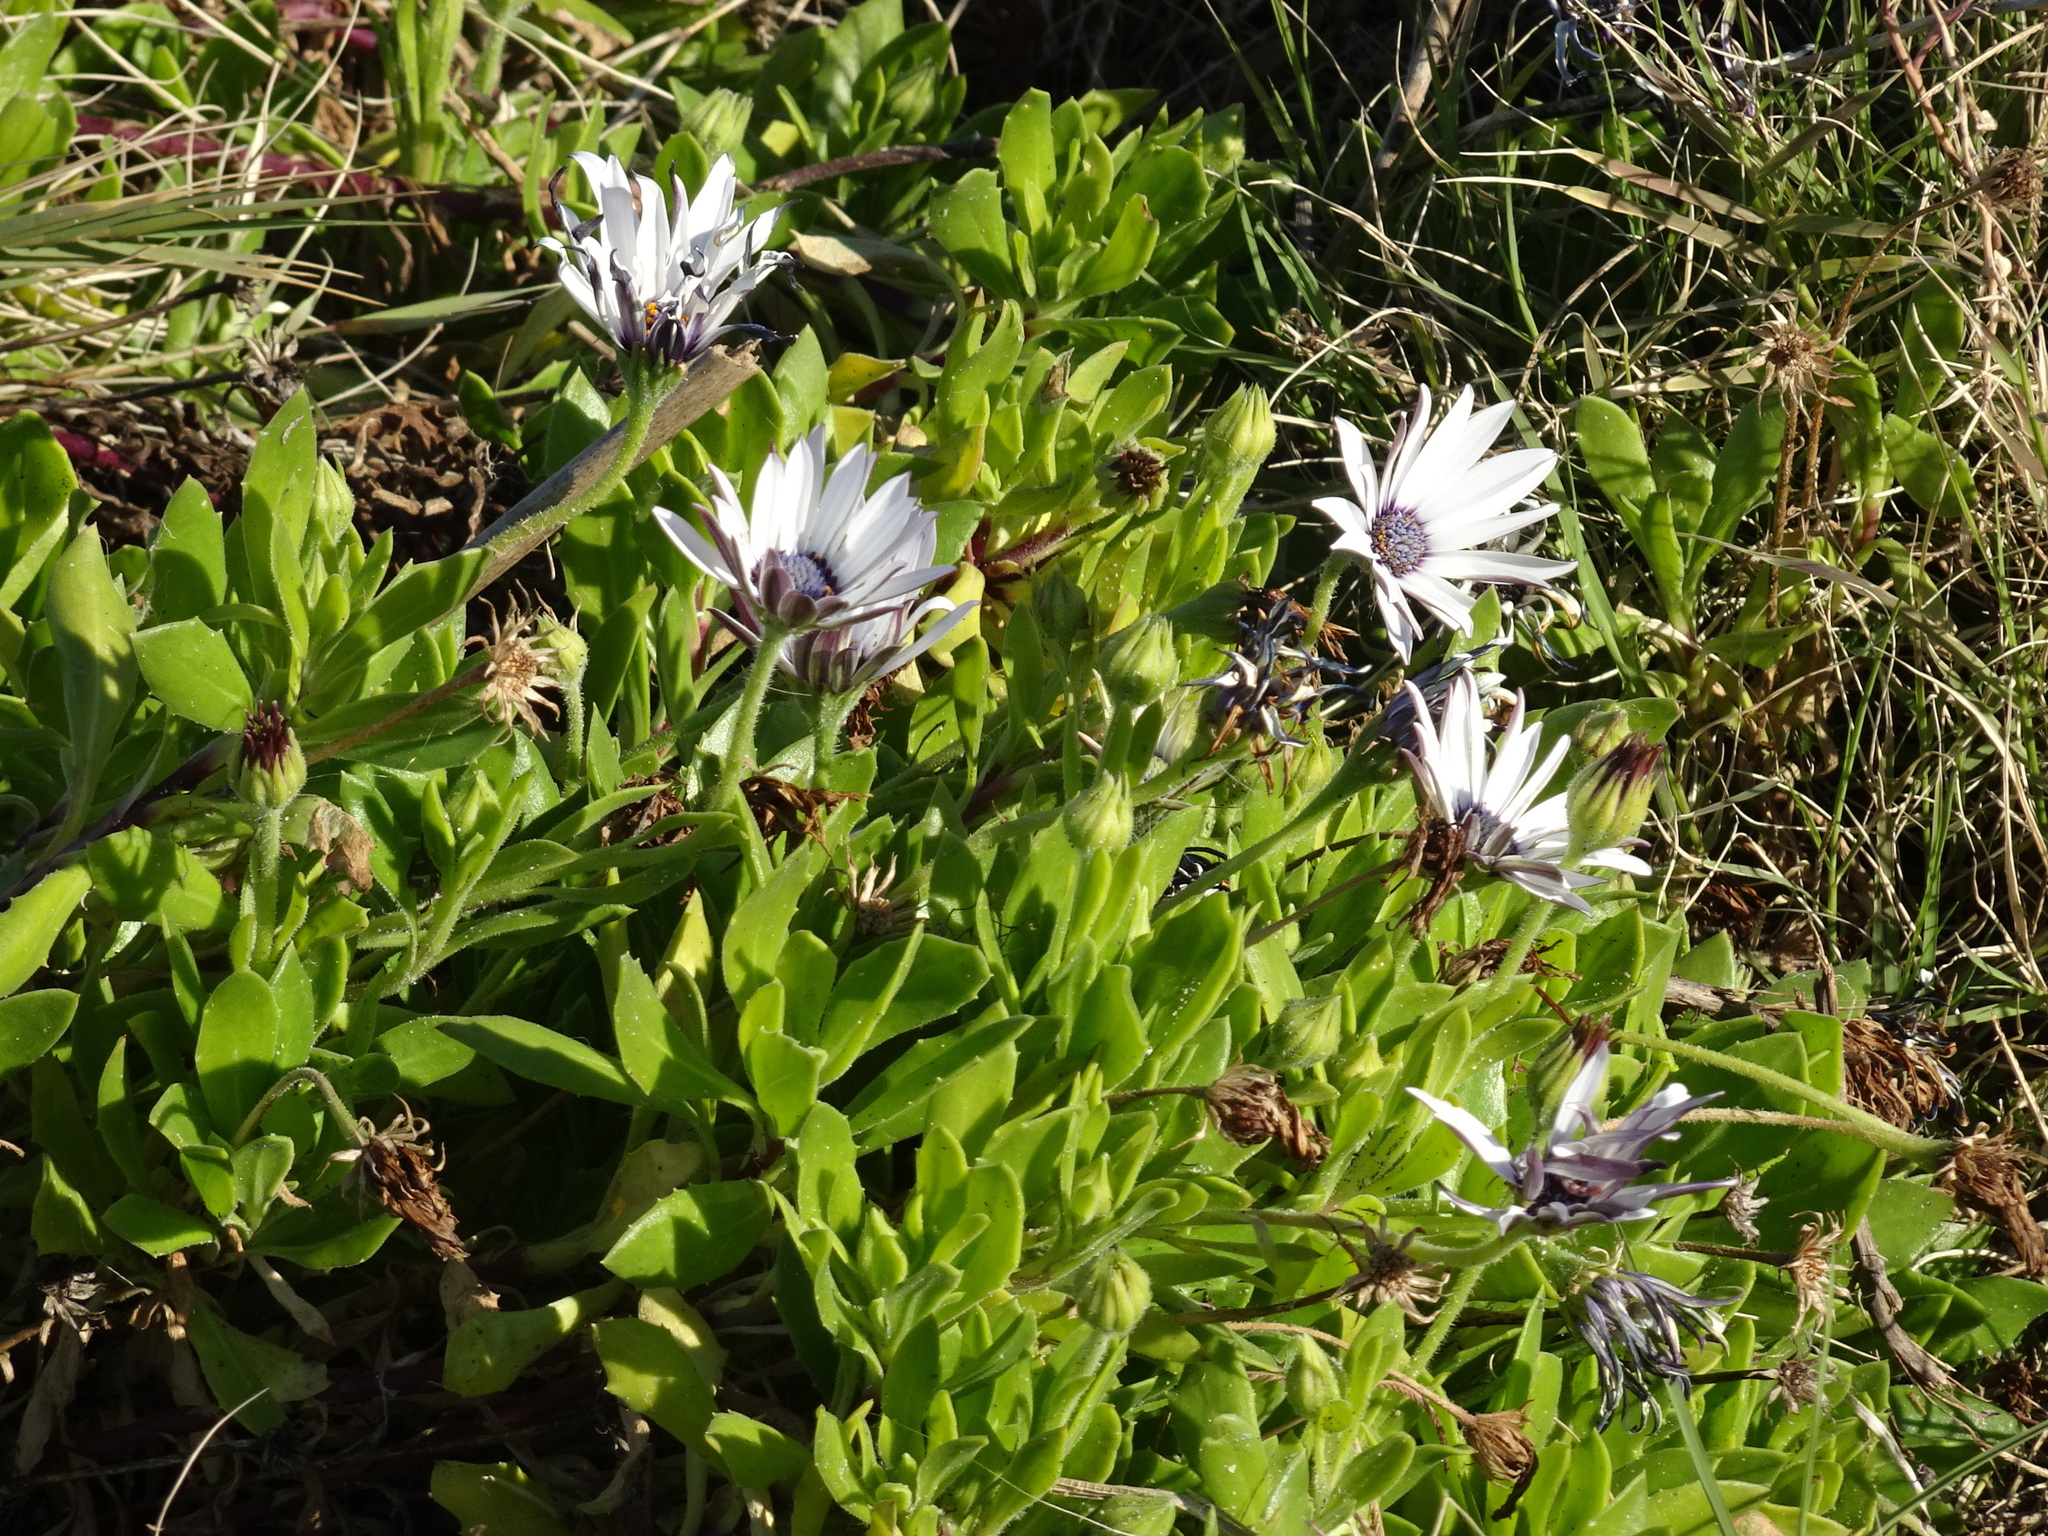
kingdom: Plantae
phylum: Tracheophyta
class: Magnoliopsida
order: Asterales
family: Asteraceae
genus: Dimorphotheca
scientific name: Dimorphotheca fruticosa
